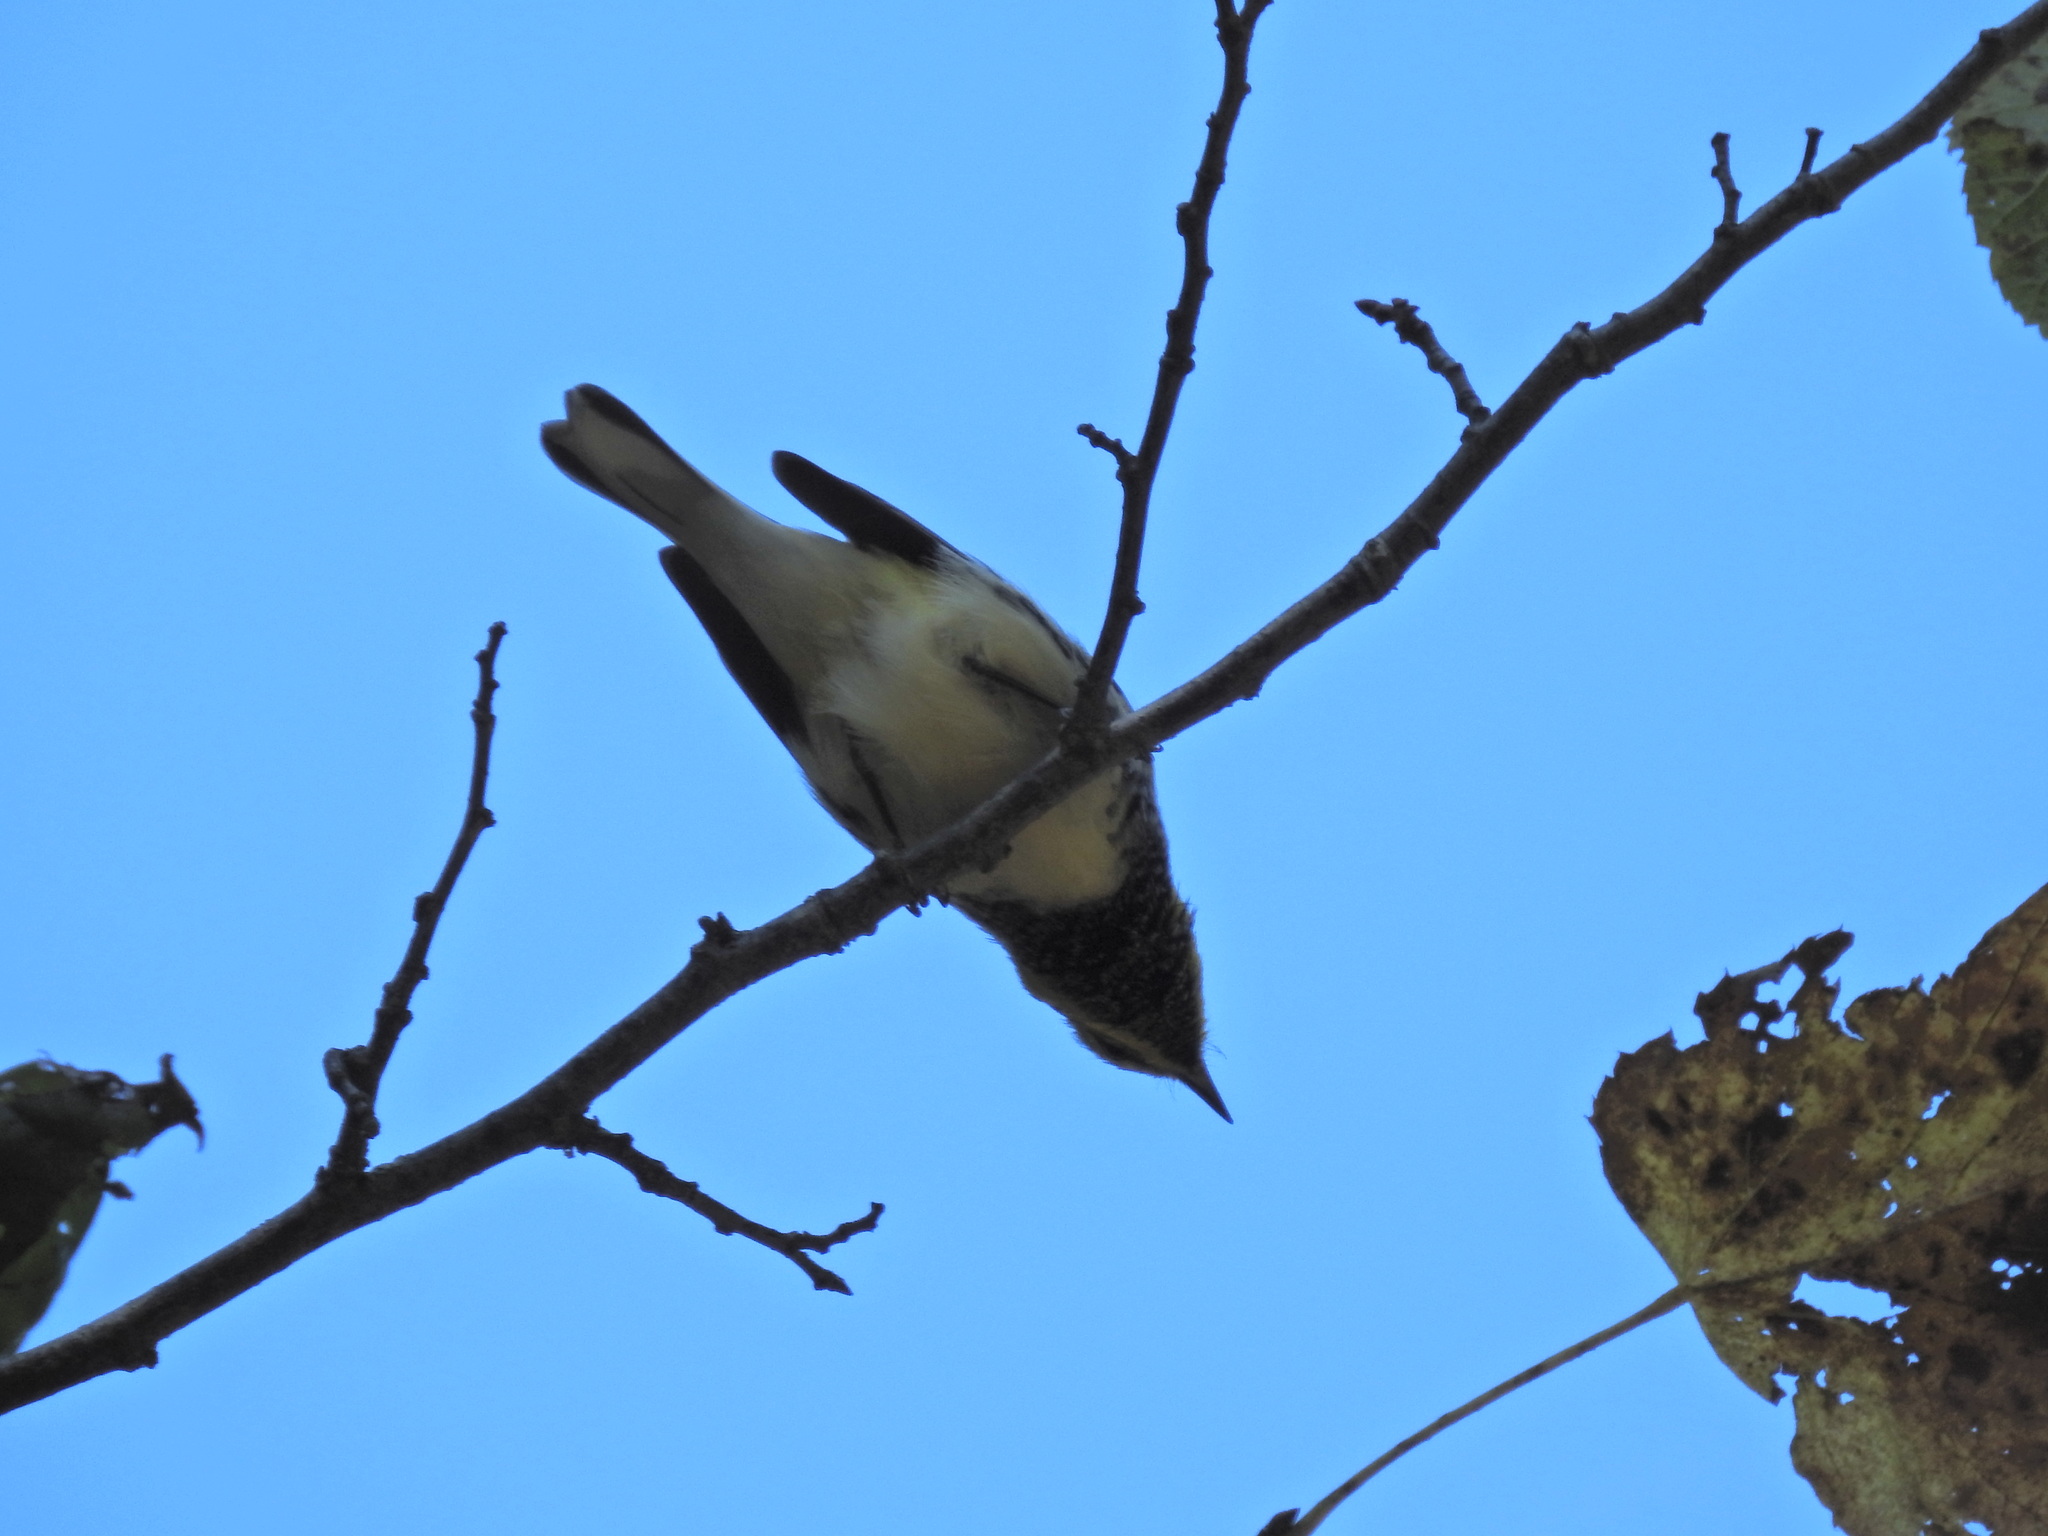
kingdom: Animalia
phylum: Chordata
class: Aves
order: Passeriformes
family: Parulidae
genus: Setophaga
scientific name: Setophaga virens
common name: Black-throated green warbler
